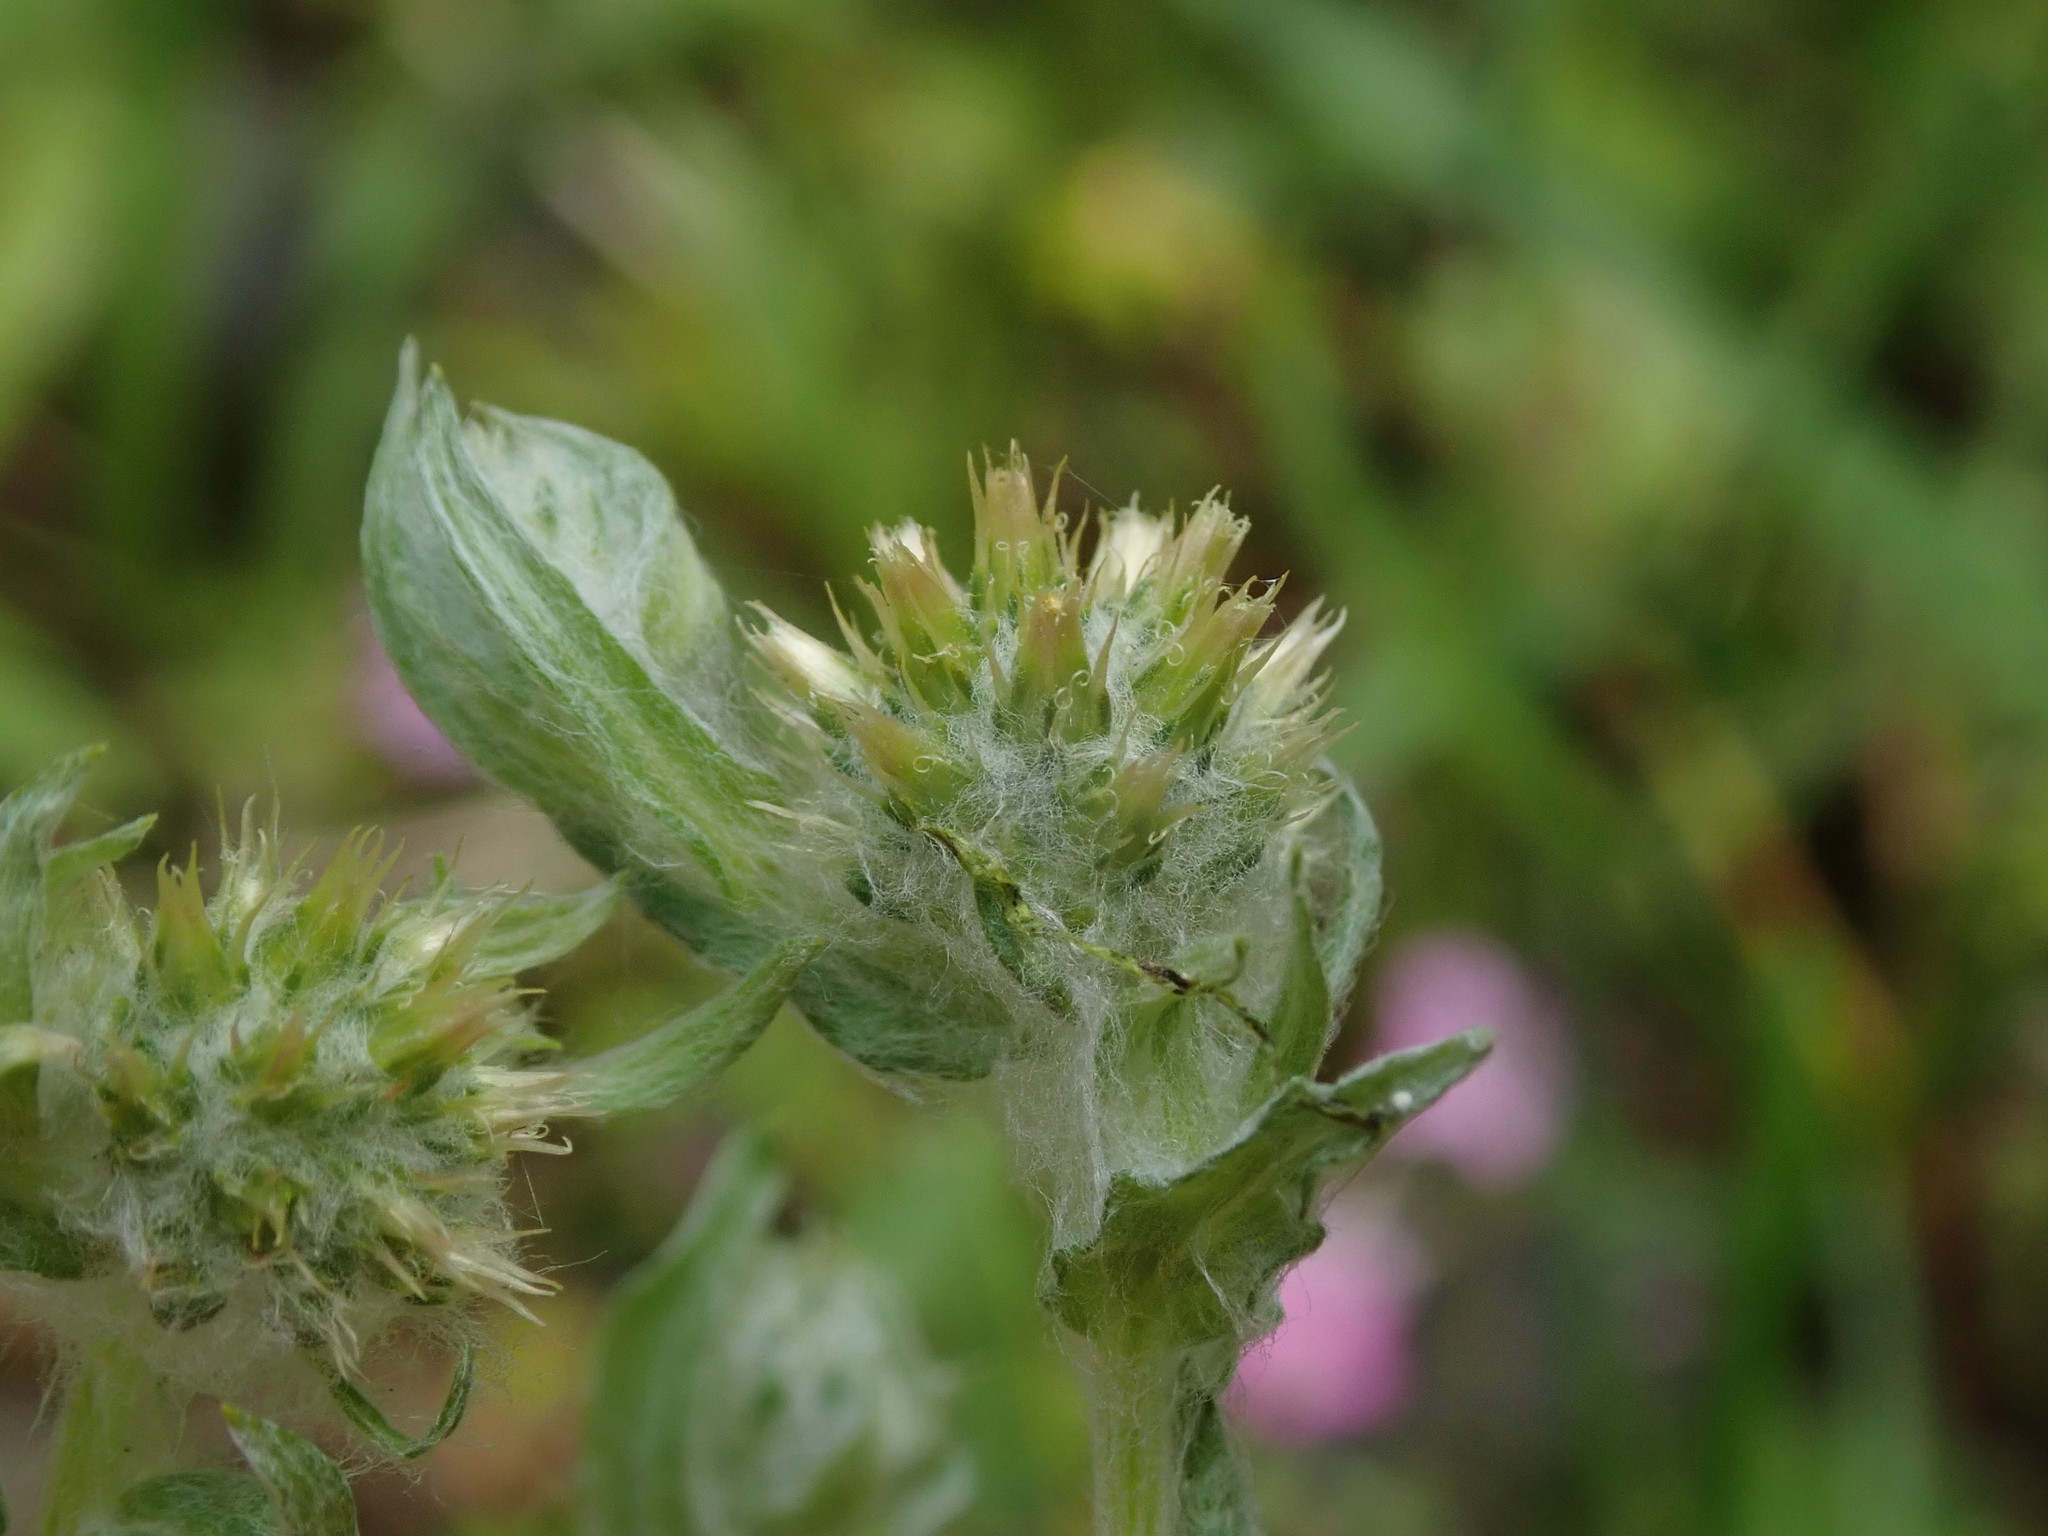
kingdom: Plantae
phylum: Tracheophyta
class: Magnoliopsida
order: Asterales
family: Asteraceae
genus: Filago
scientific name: Filago germanica
